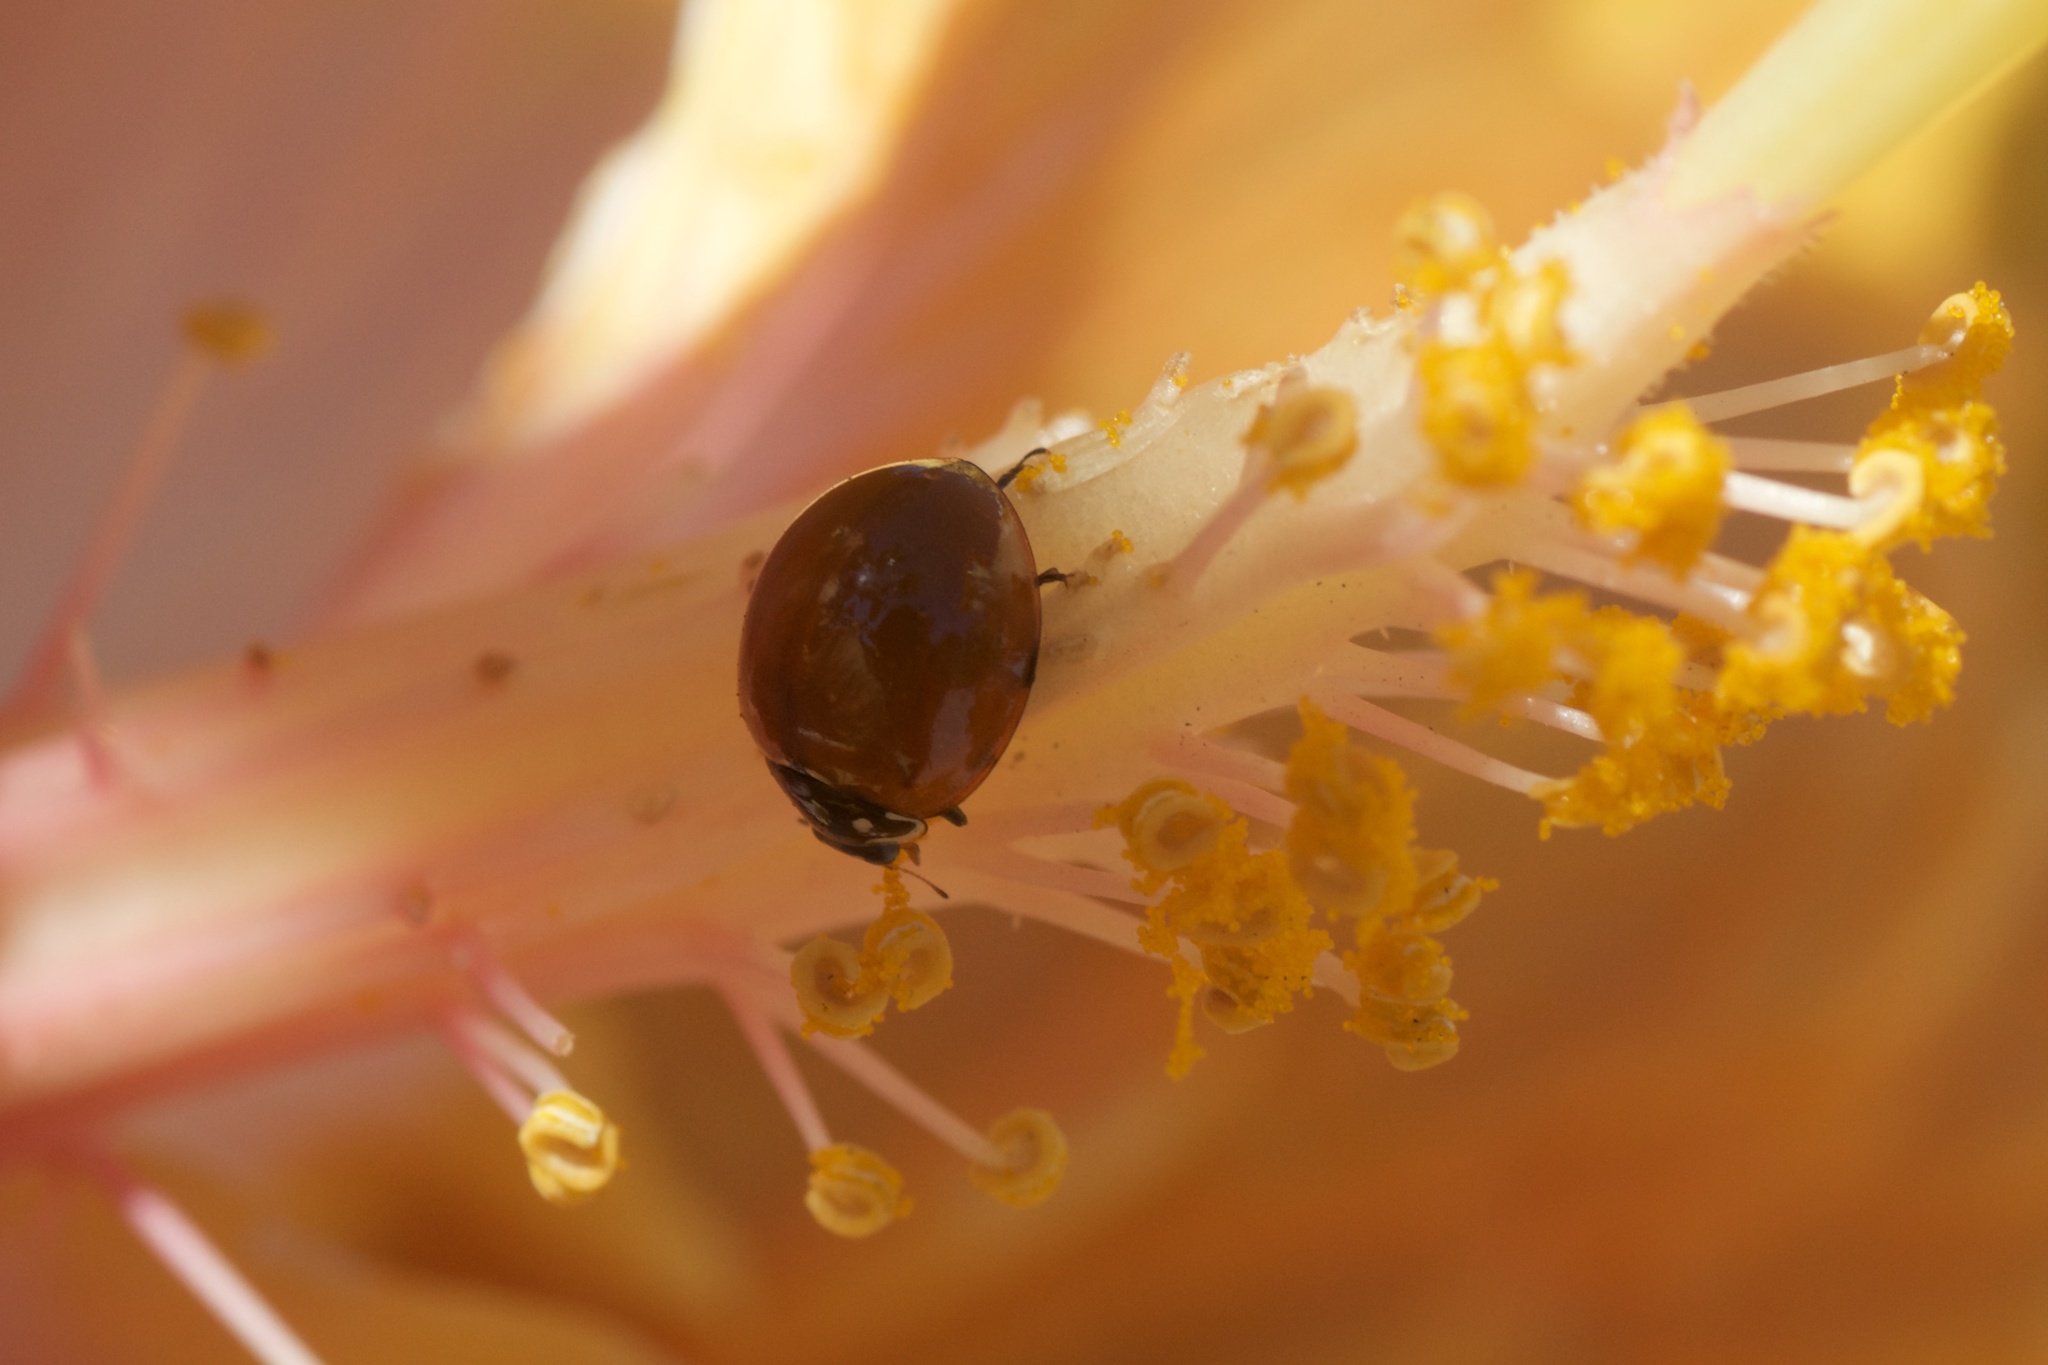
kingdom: Animalia
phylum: Arthropoda
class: Insecta
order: Coleoptera
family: Coccinellidae
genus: Cycloneda
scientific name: Cycloneda sanguinea
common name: Ladybird beetle
